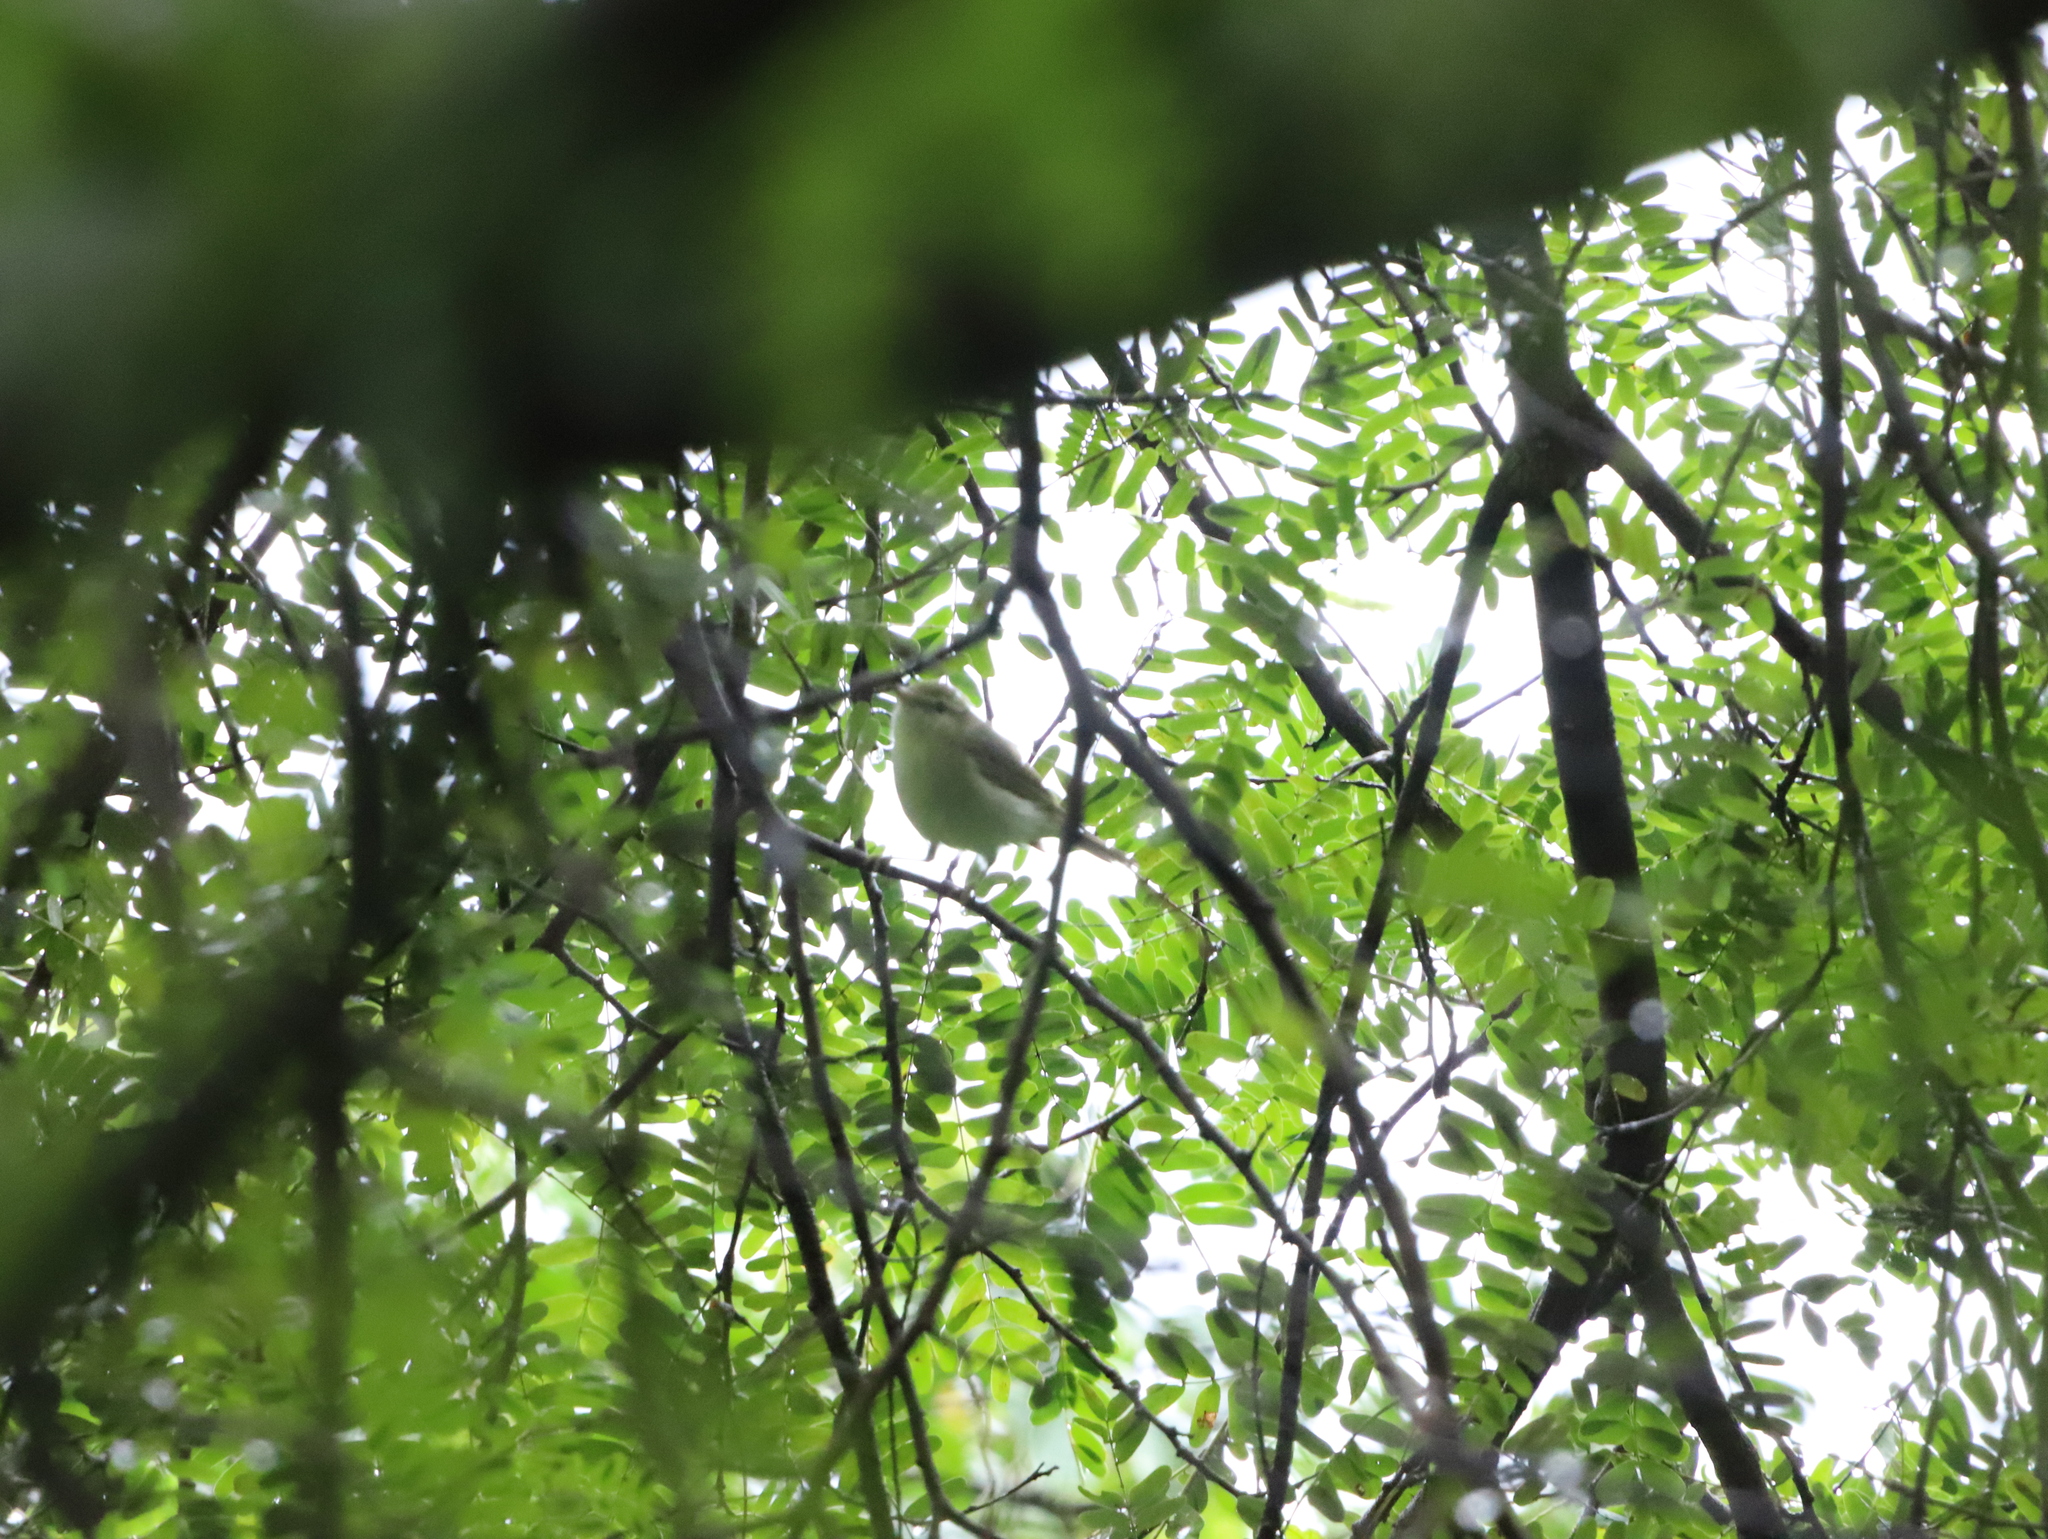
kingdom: Animalia
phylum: Chordata
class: Aves
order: Passeriformes
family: Cisticolidae
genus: Orthotomus
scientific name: Orthotomus sutorius
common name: Common tailorbird
